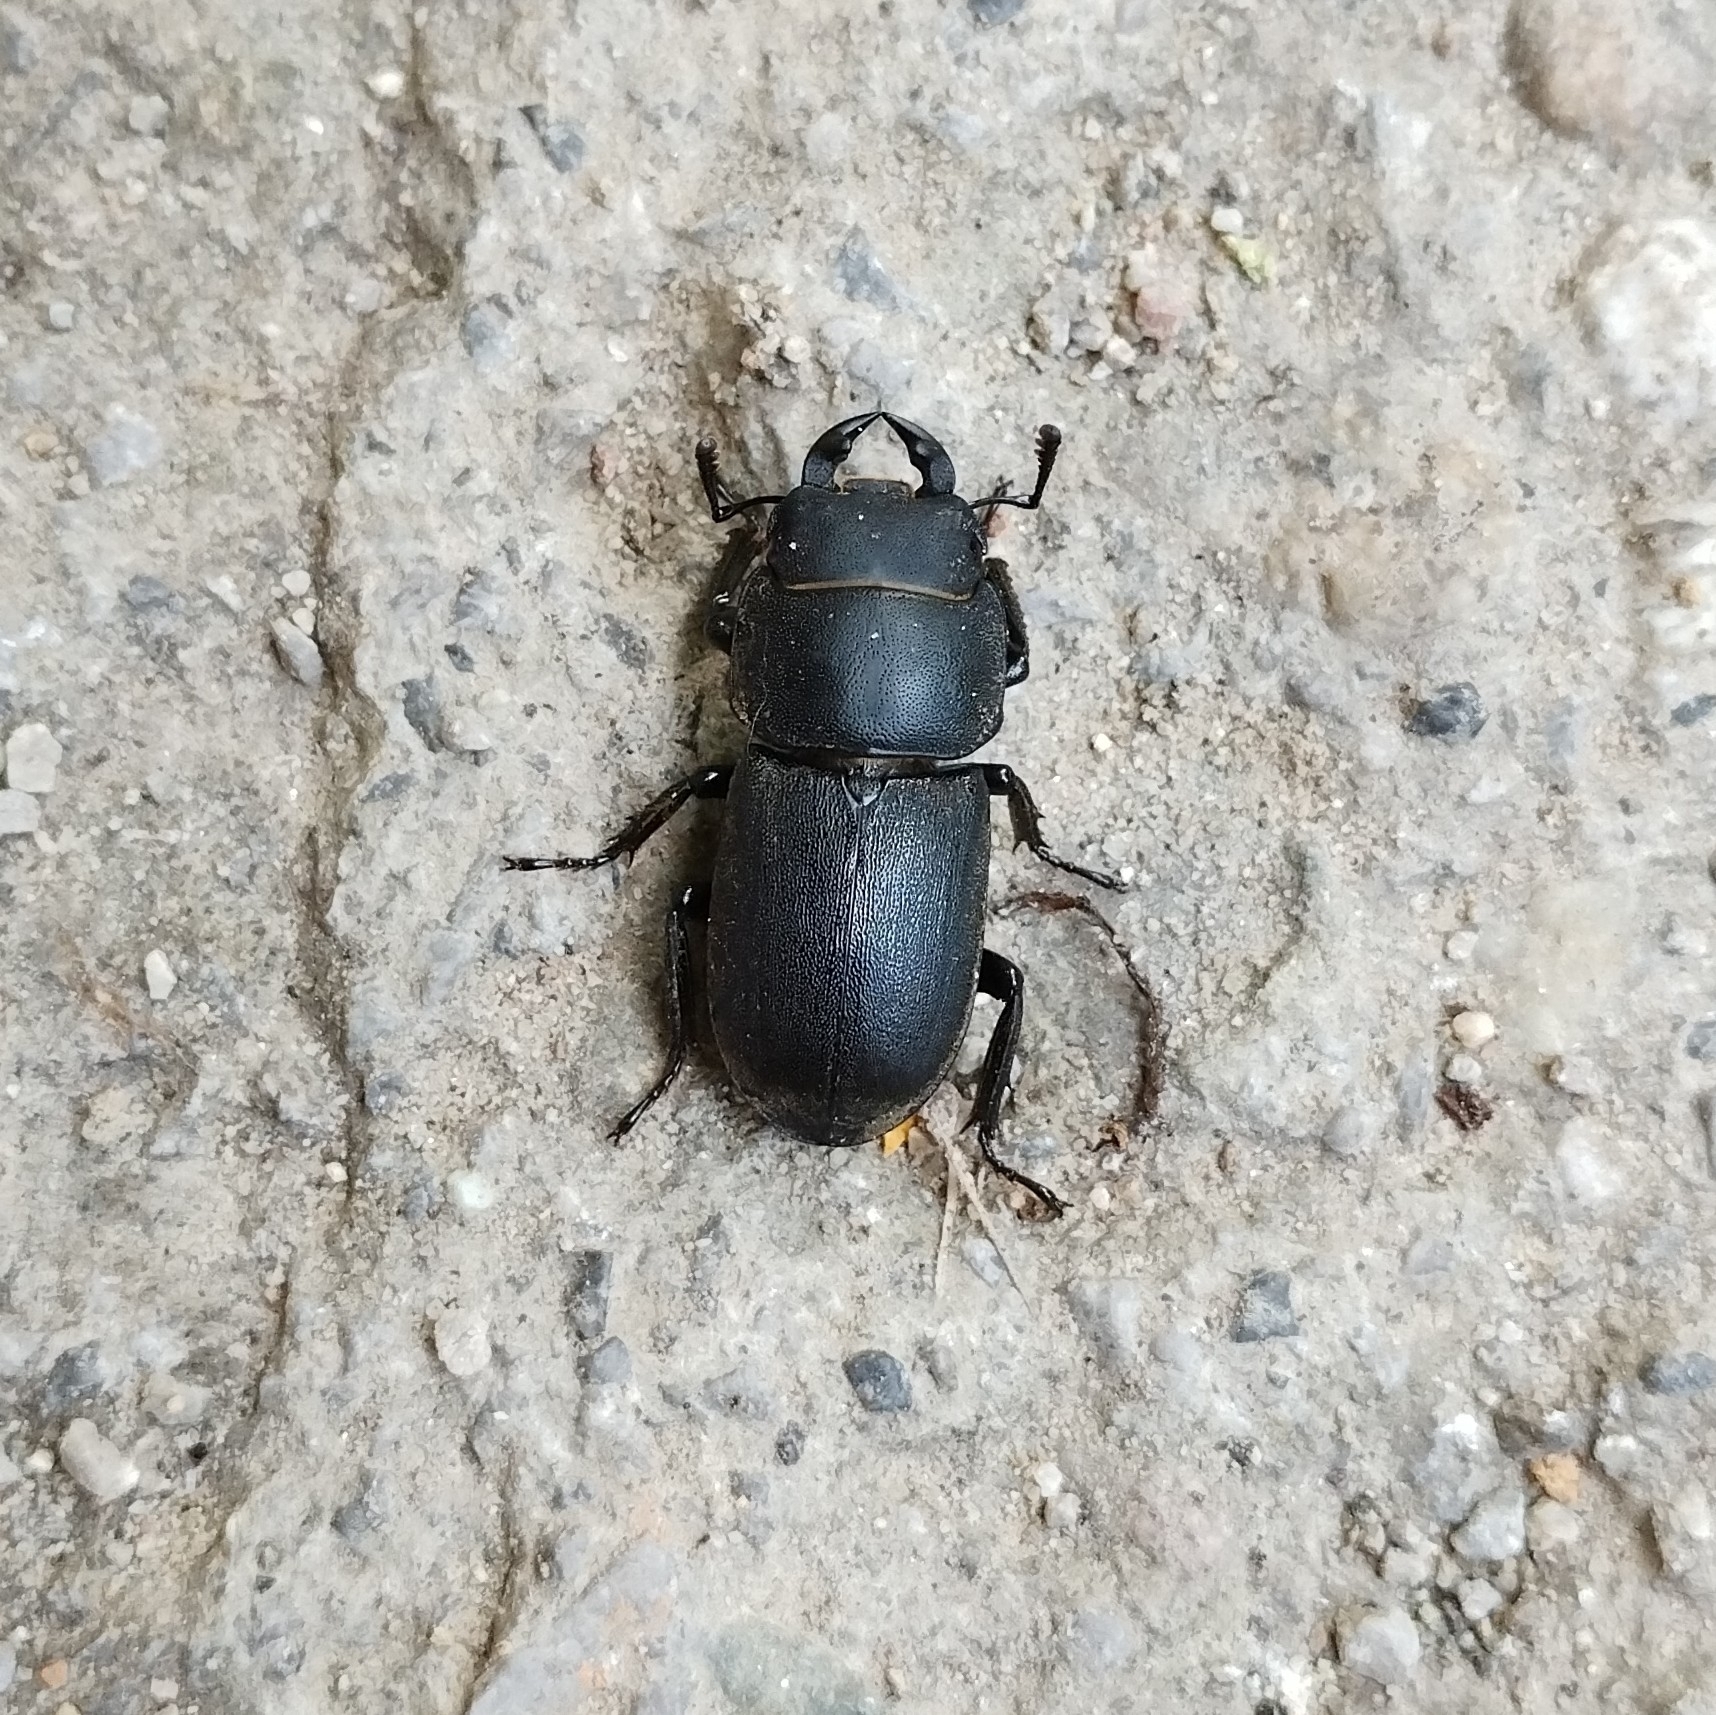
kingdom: Animalia
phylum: Arthropoda
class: Insecta
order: Coleoptera
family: Lucanidae
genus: Dorcus
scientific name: Dorcus parallelipipedus
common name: Lesser stag beetle
